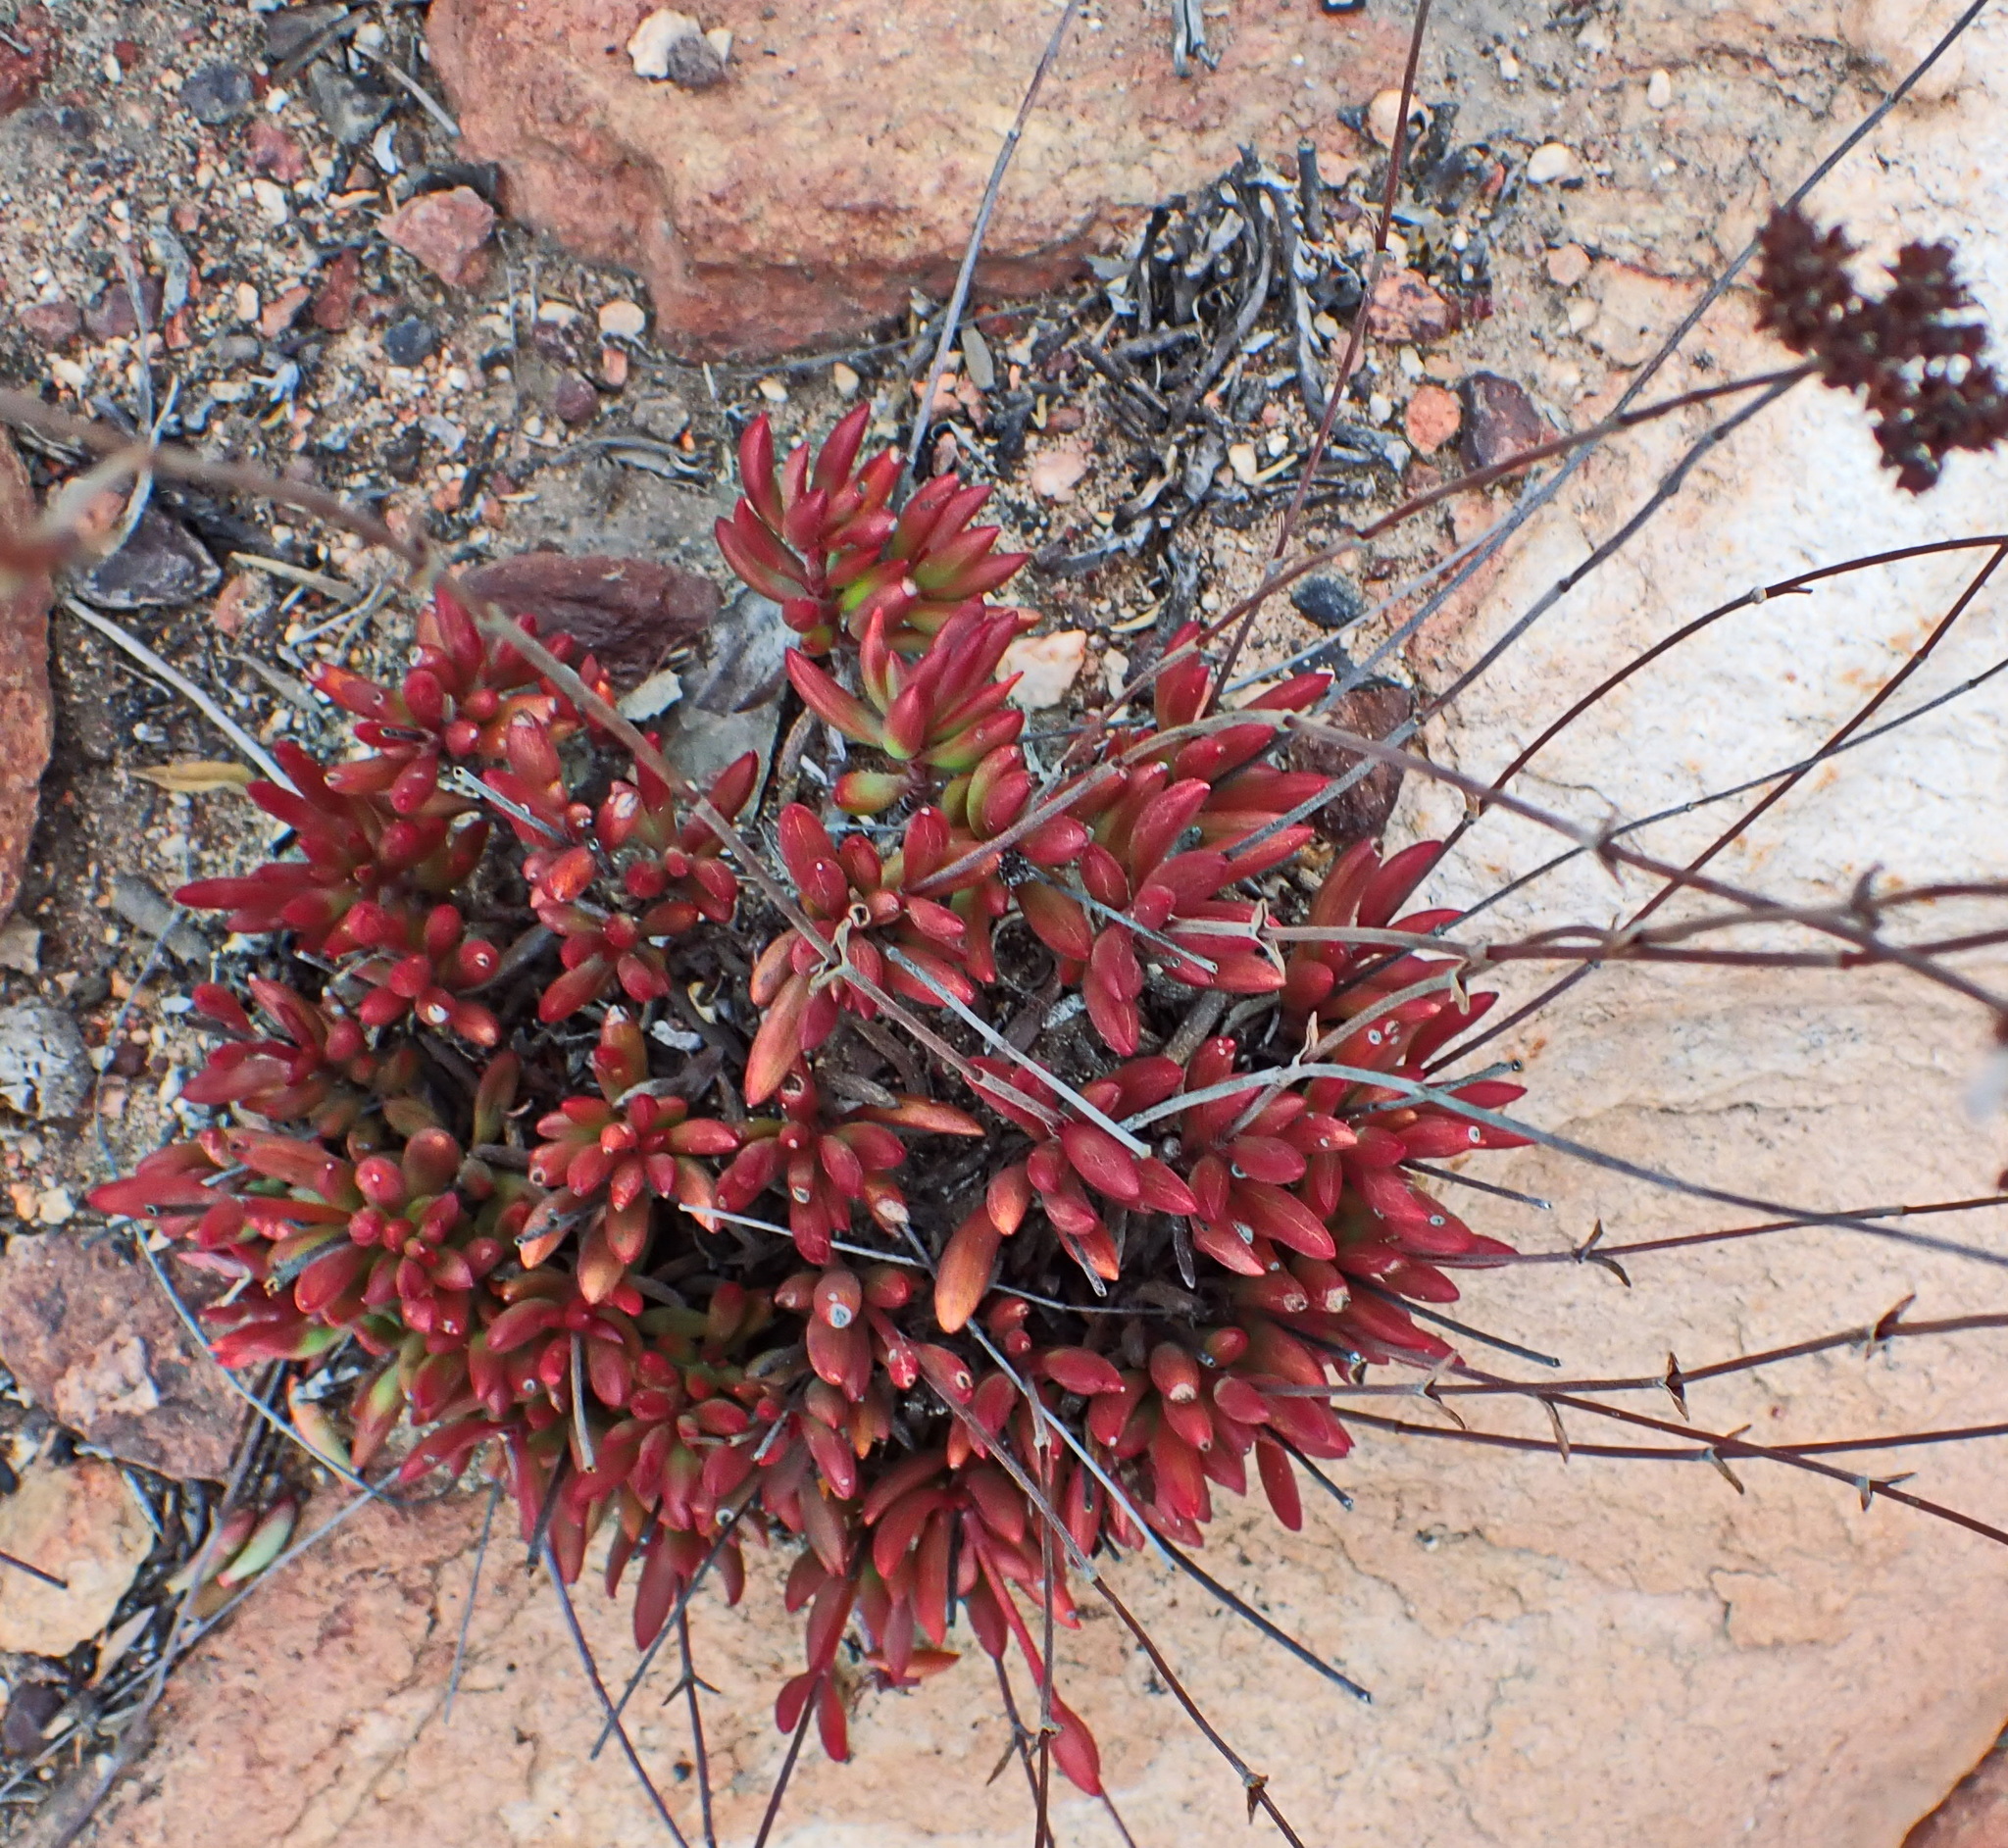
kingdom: Plantae
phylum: Tracheophyta
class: Magnoliopsida
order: Saxifragales
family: Crassulaceae
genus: Crassula
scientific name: Crassula atropurpurea
